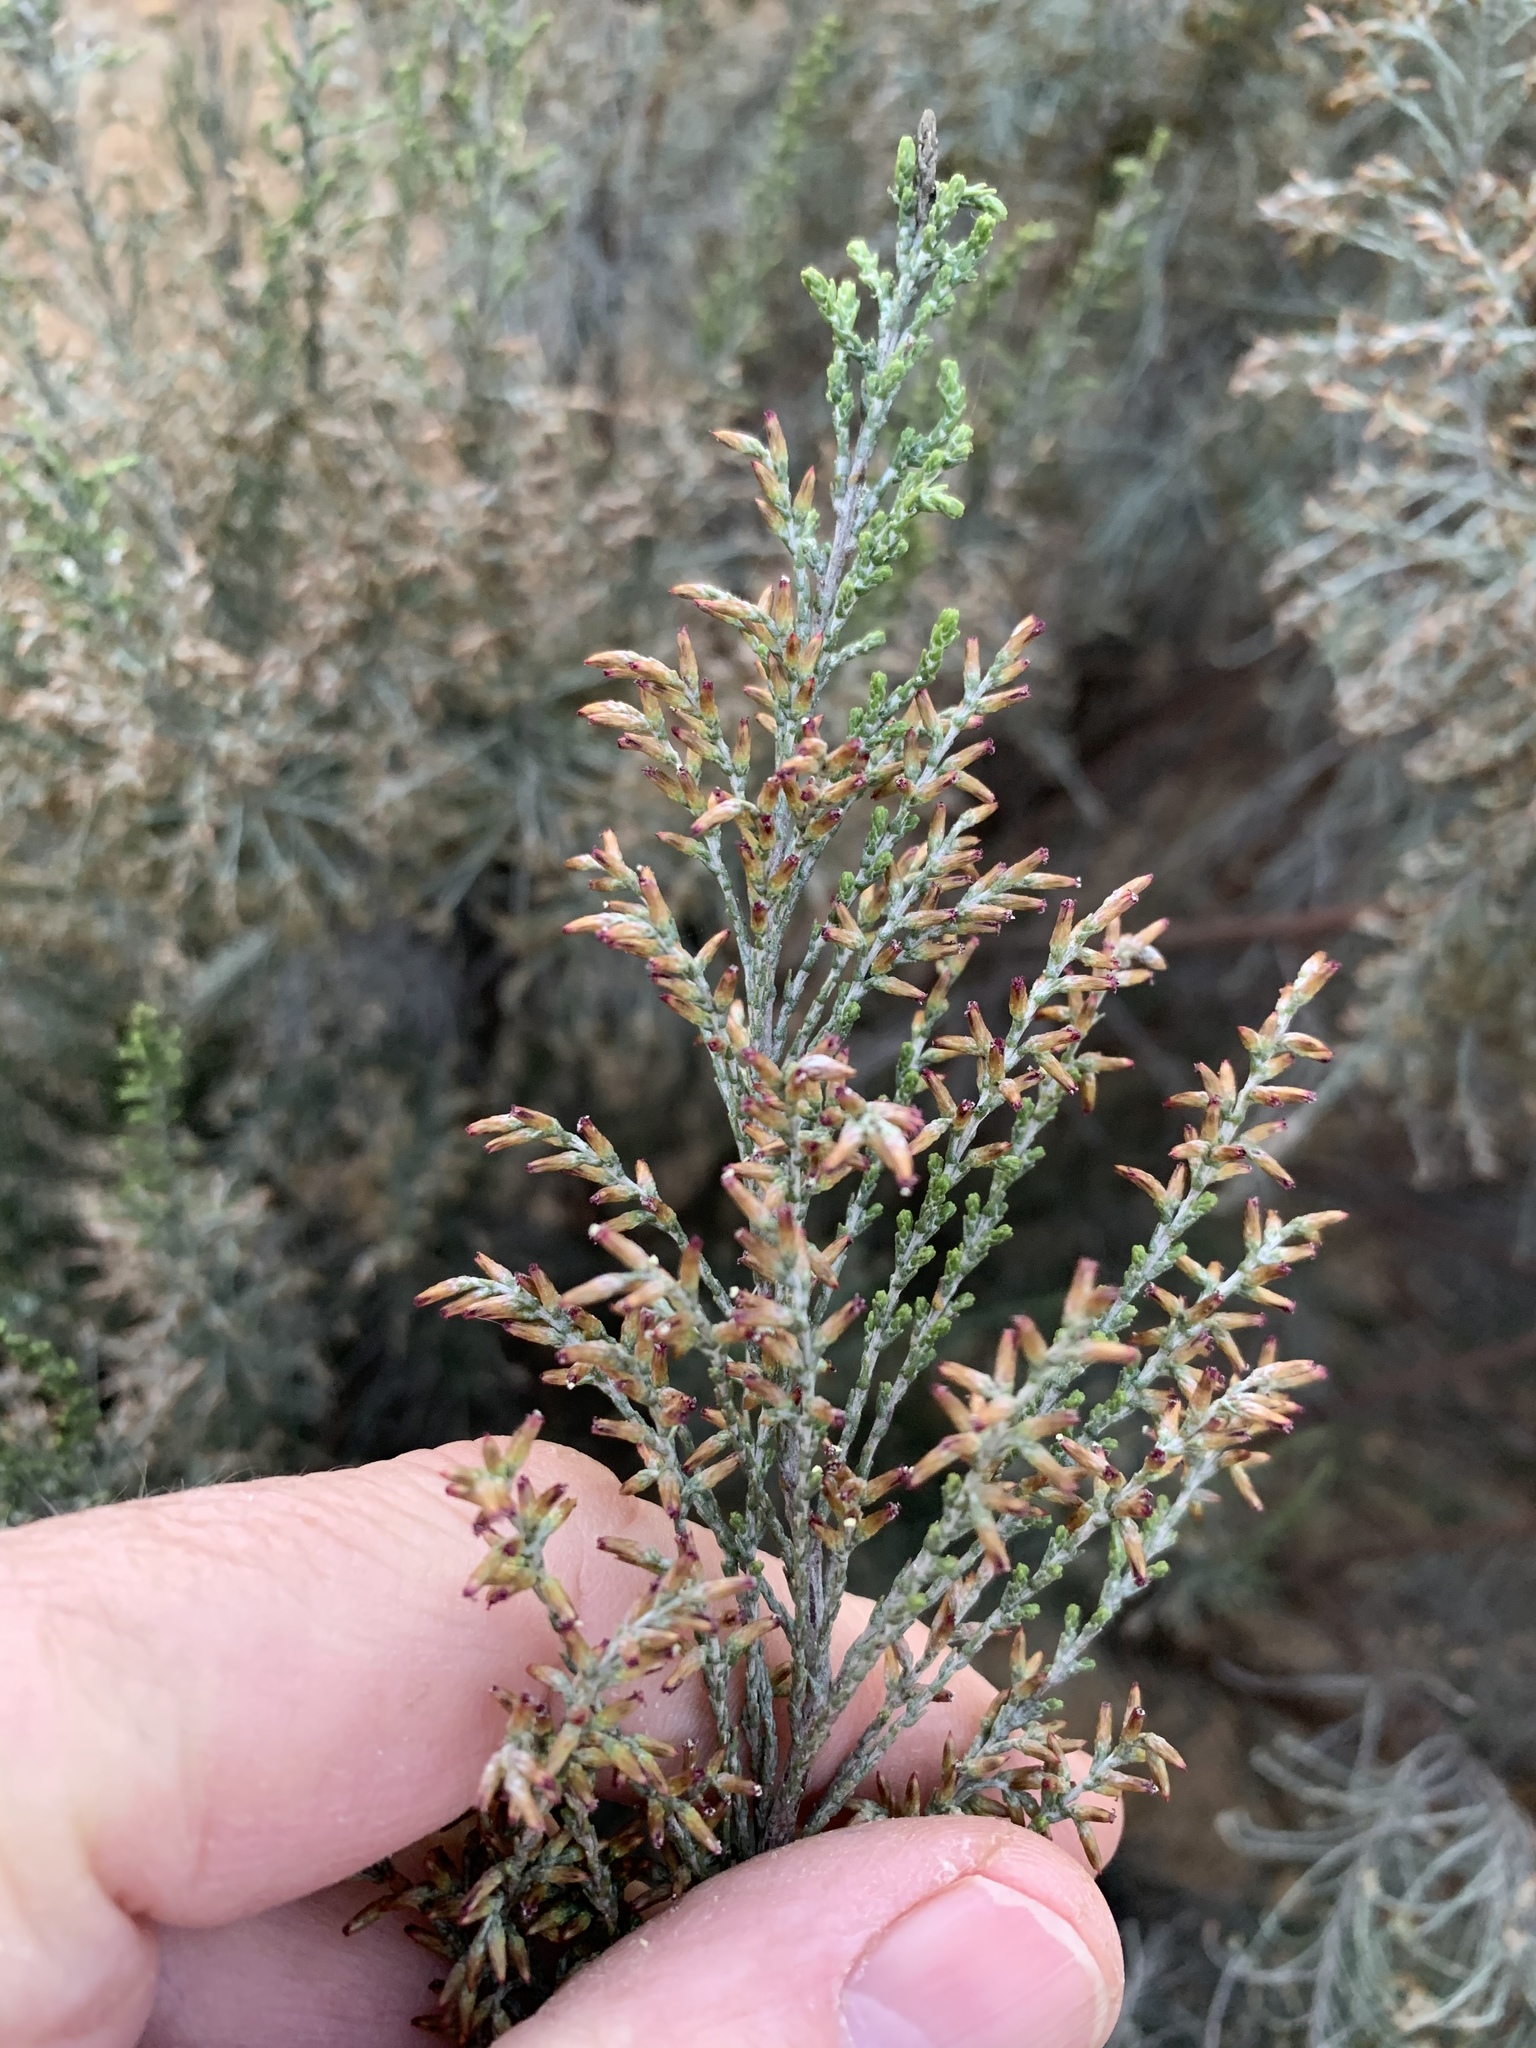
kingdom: Plantae
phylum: Tracheophyta
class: Magnoliopsida
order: Asterales
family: Asteraceae
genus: Dicerothamnus
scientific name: Dicerothamnus rhinocerotis
